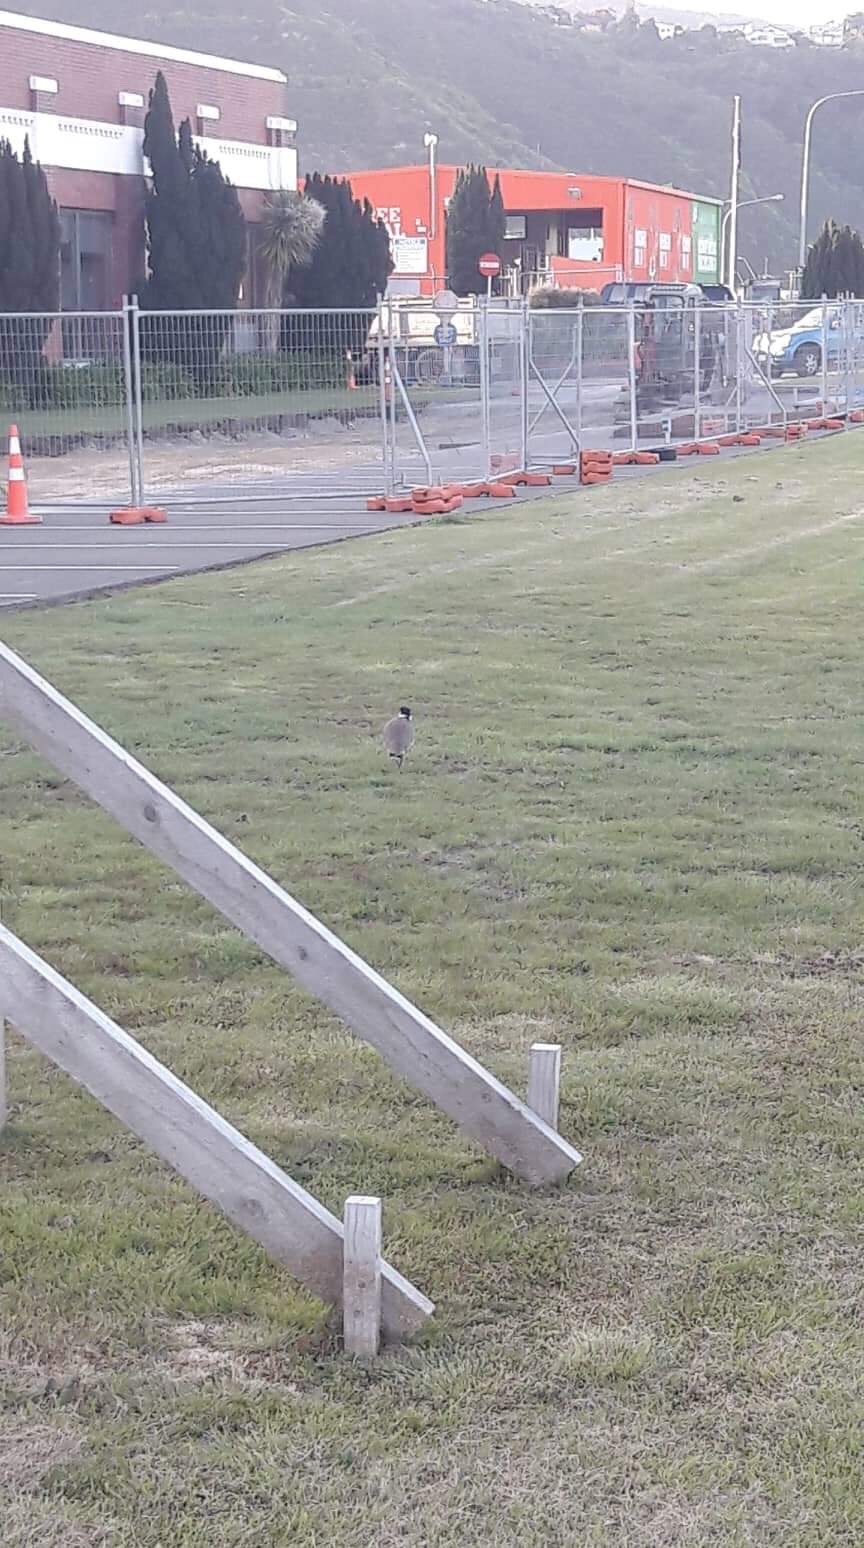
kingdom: Animalia
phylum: Chordata
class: Aves
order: Charadriiformes
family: Charadriidae
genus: Vanellus
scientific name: Vanellus miles
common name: Masked lapwing
